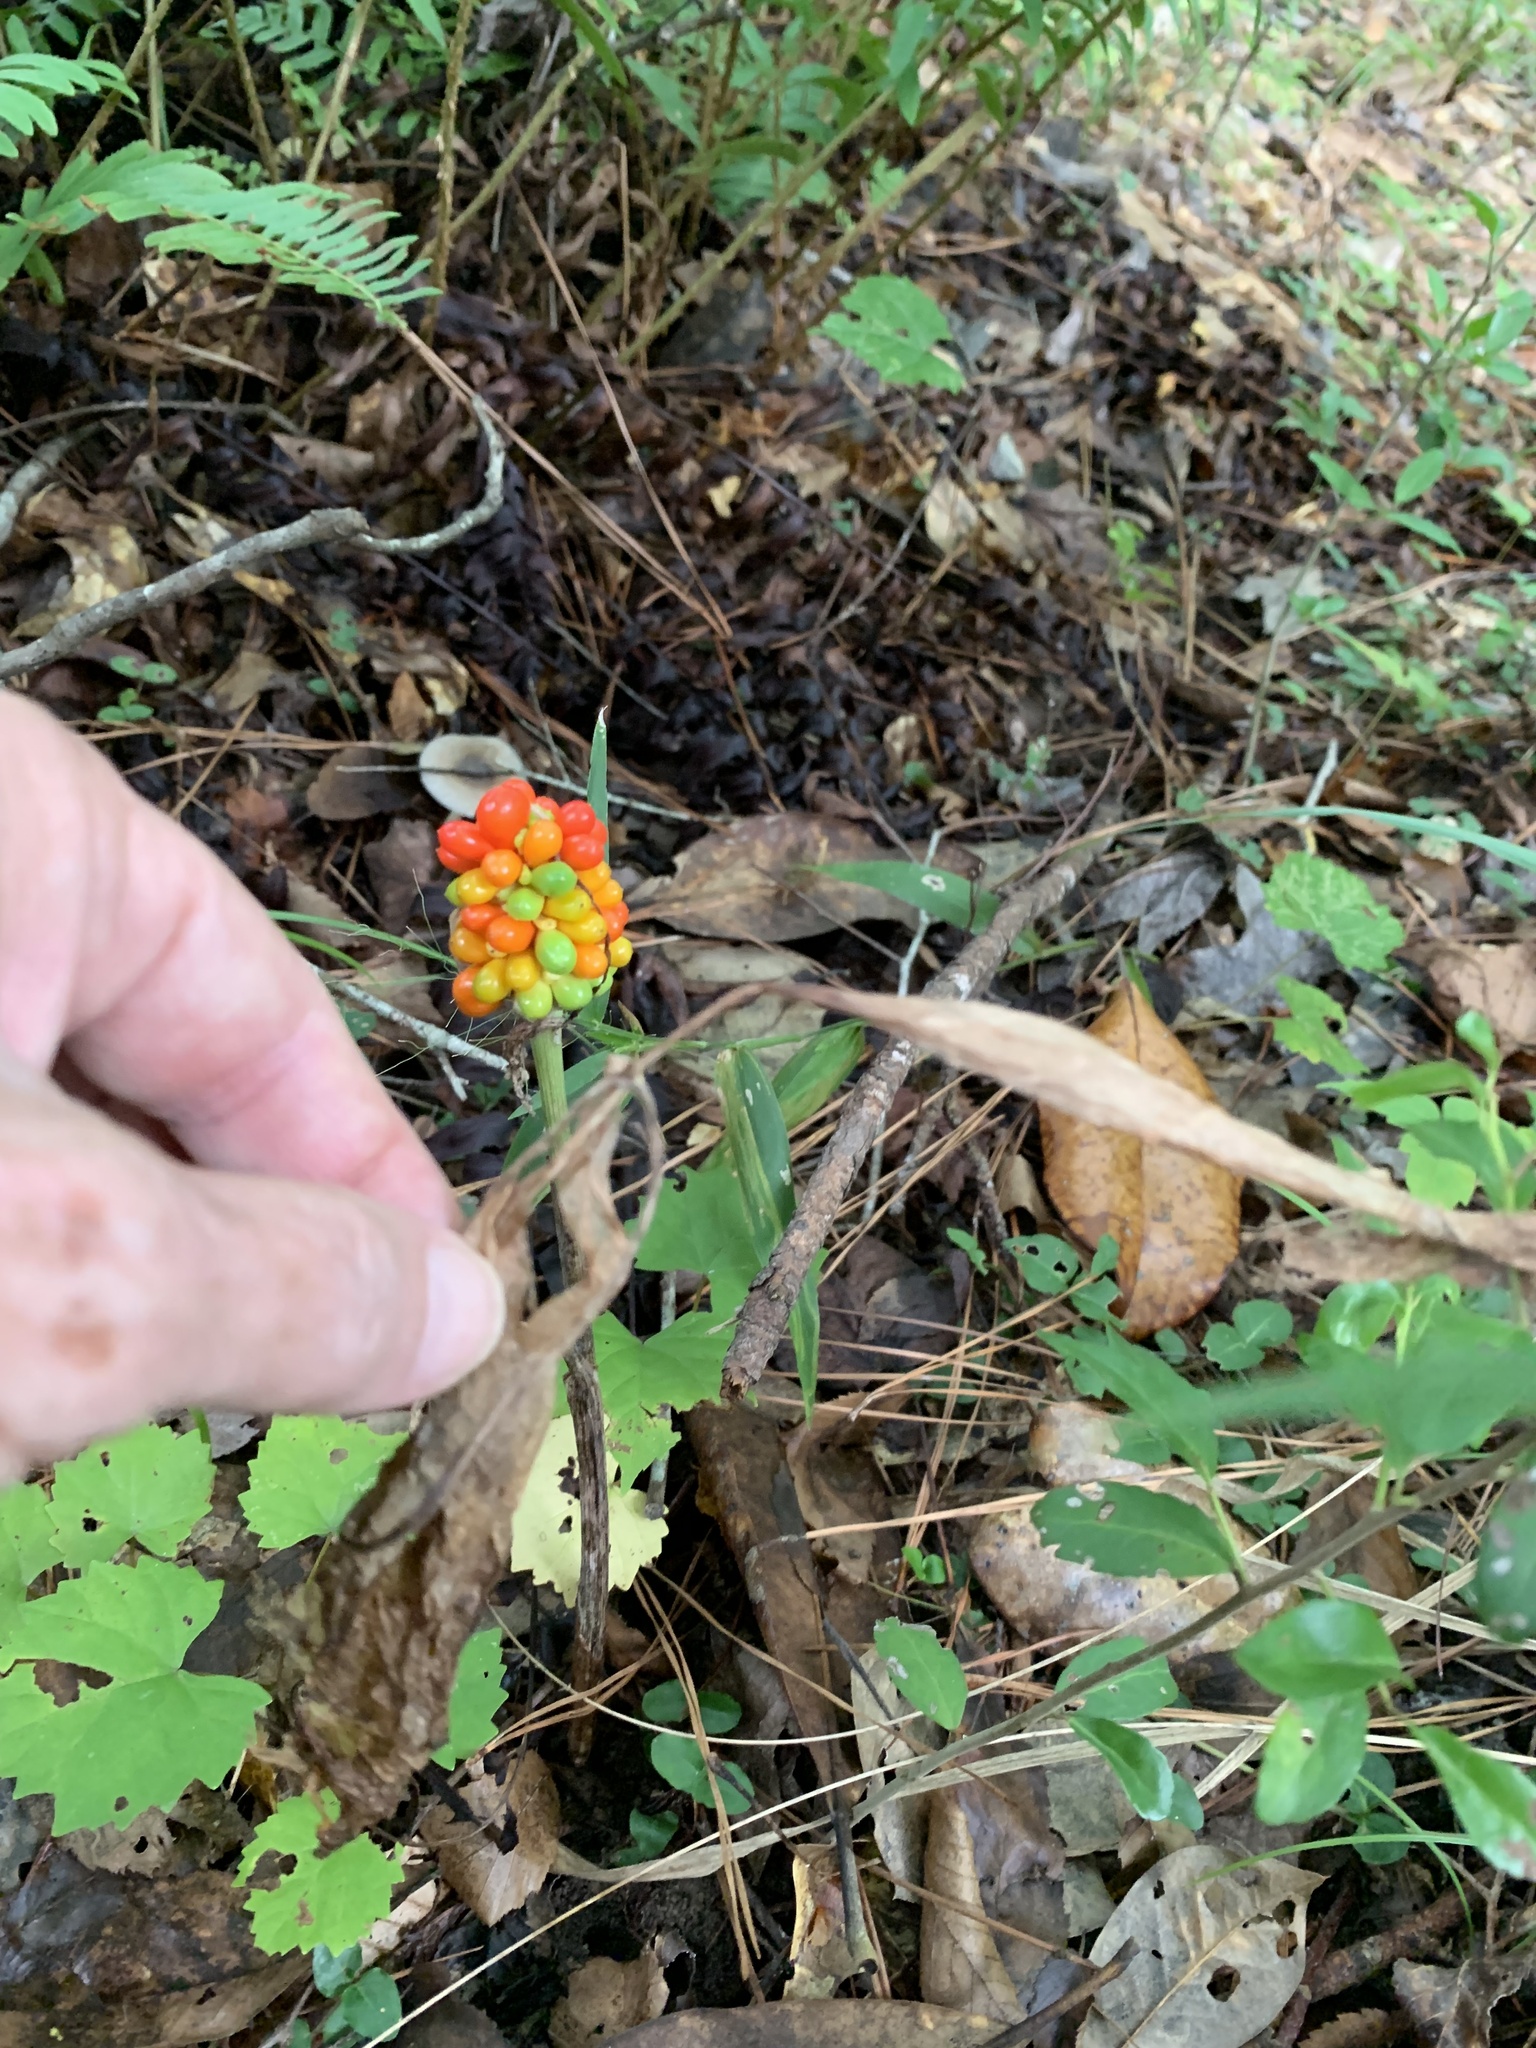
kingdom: Plantae
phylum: Tracheophyta
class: Liliopsida
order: Alismatales
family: Araceae
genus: Arisaema
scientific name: Arisaema triphyllum
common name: Jack-in-the-pulpit
